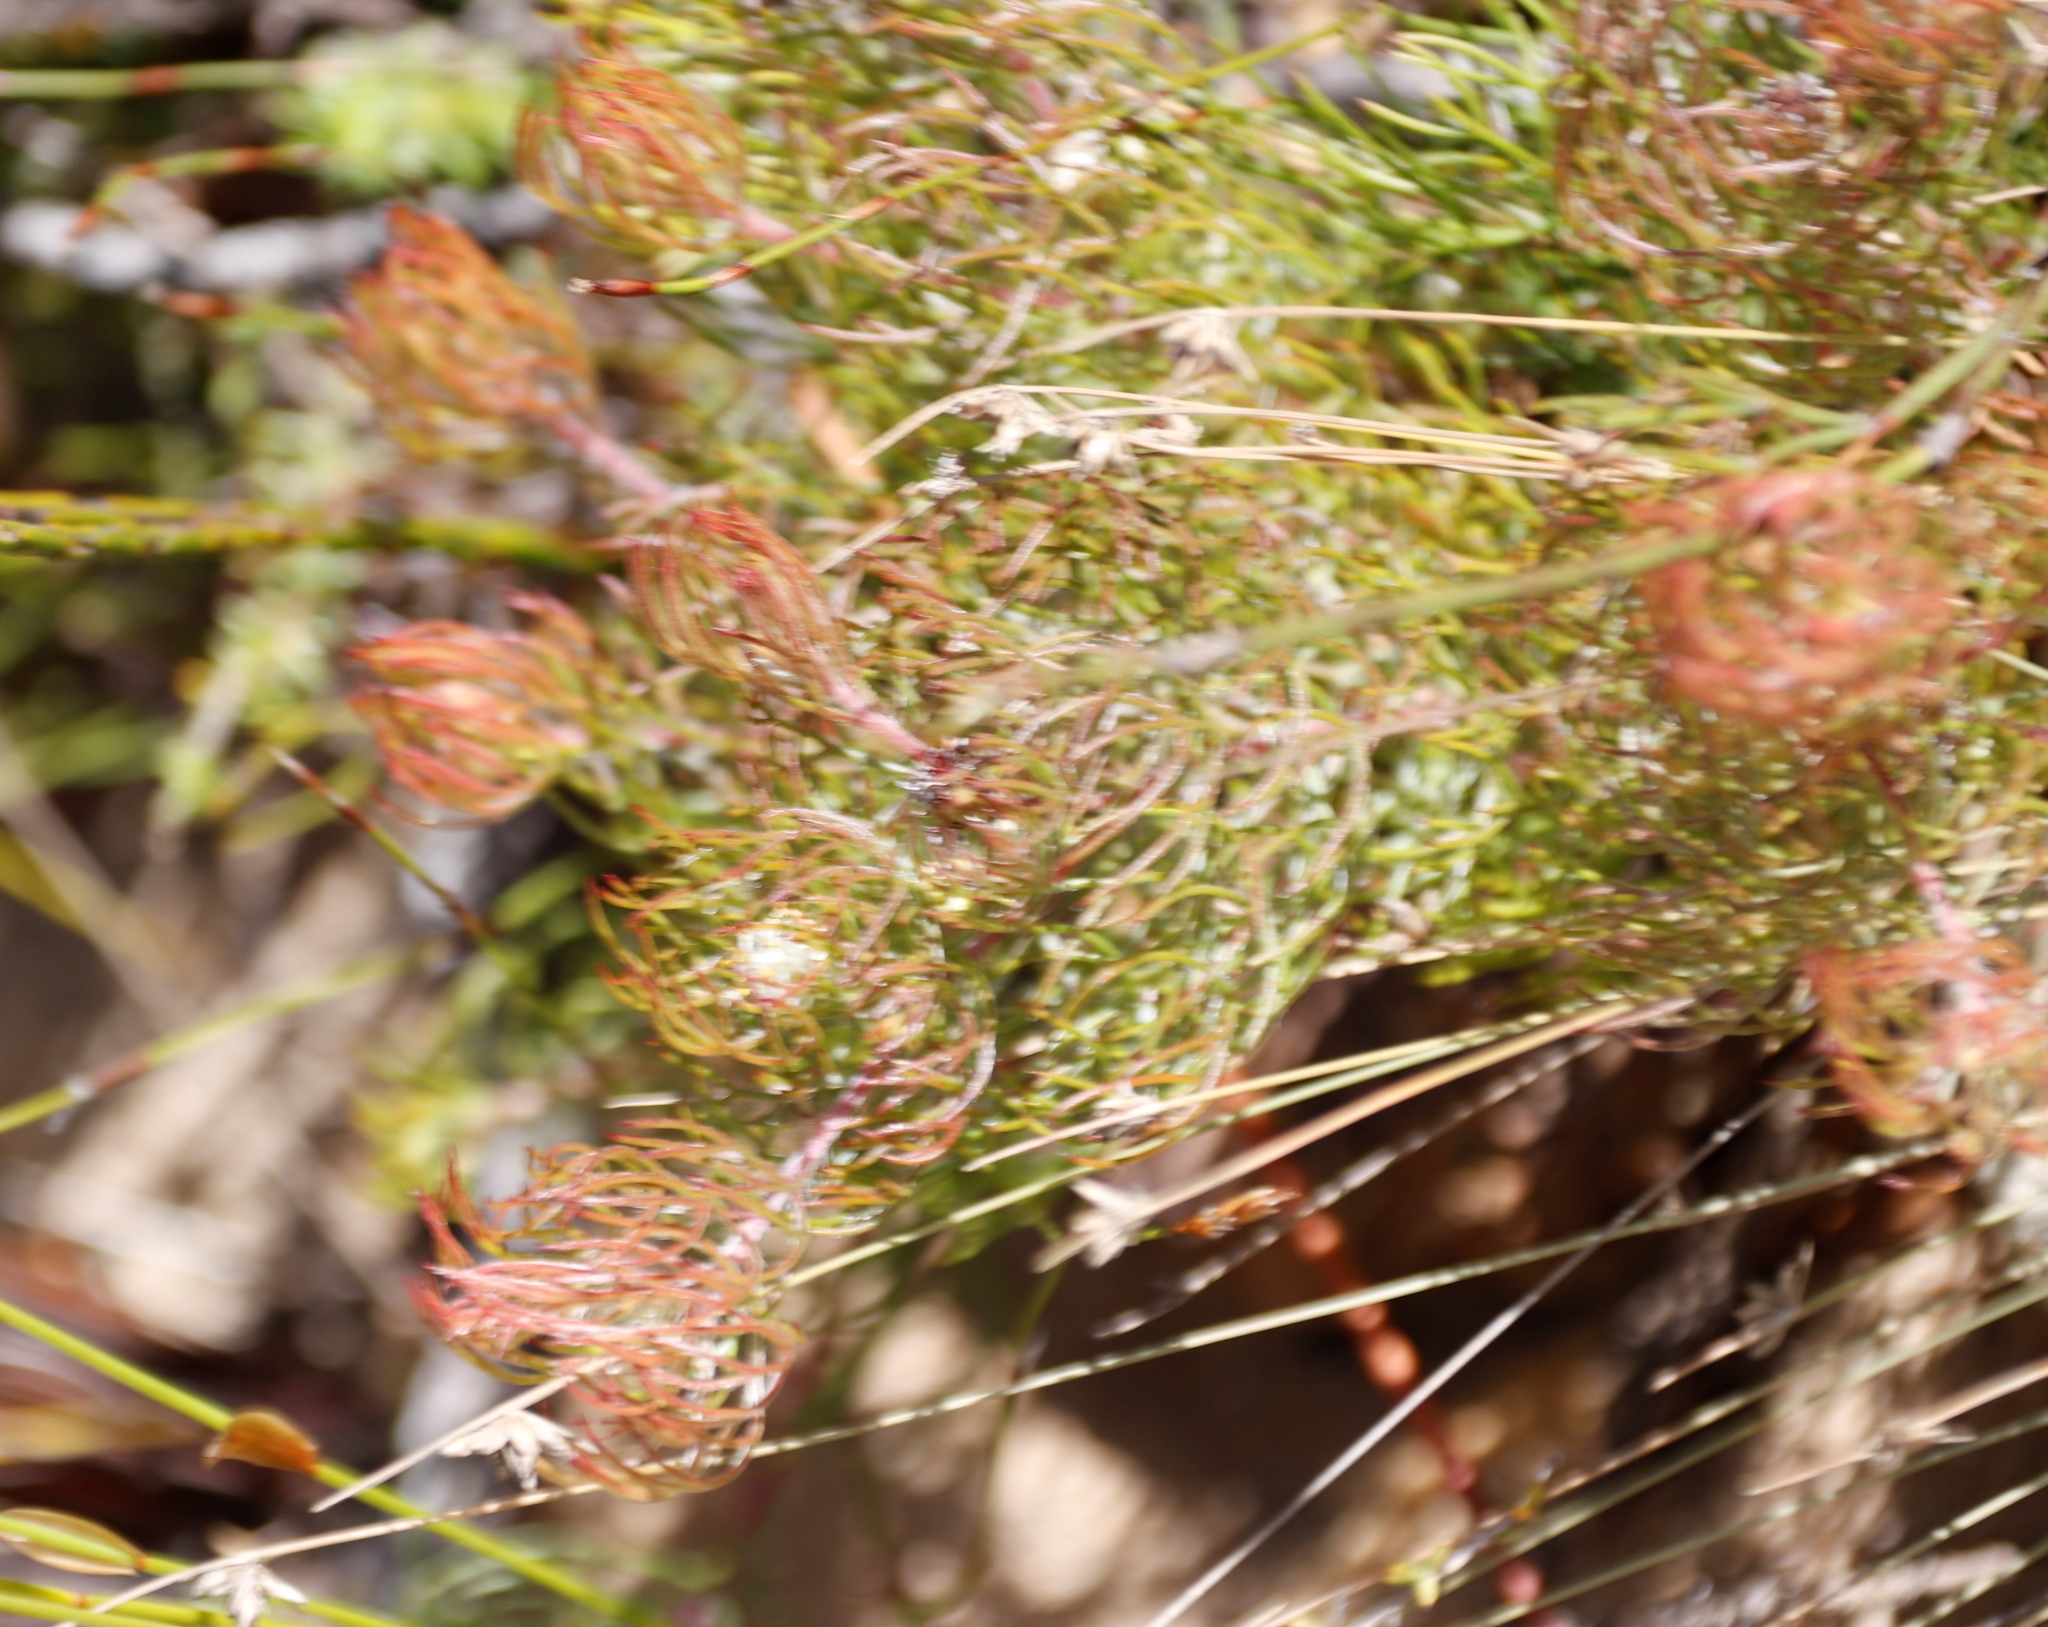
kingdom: Plantae
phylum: Tracheophyta
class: Magnoliopsida
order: Proteales
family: Proteaceae
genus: Serruria
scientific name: Serruria inconspicua
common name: Cryptic spiderhead
